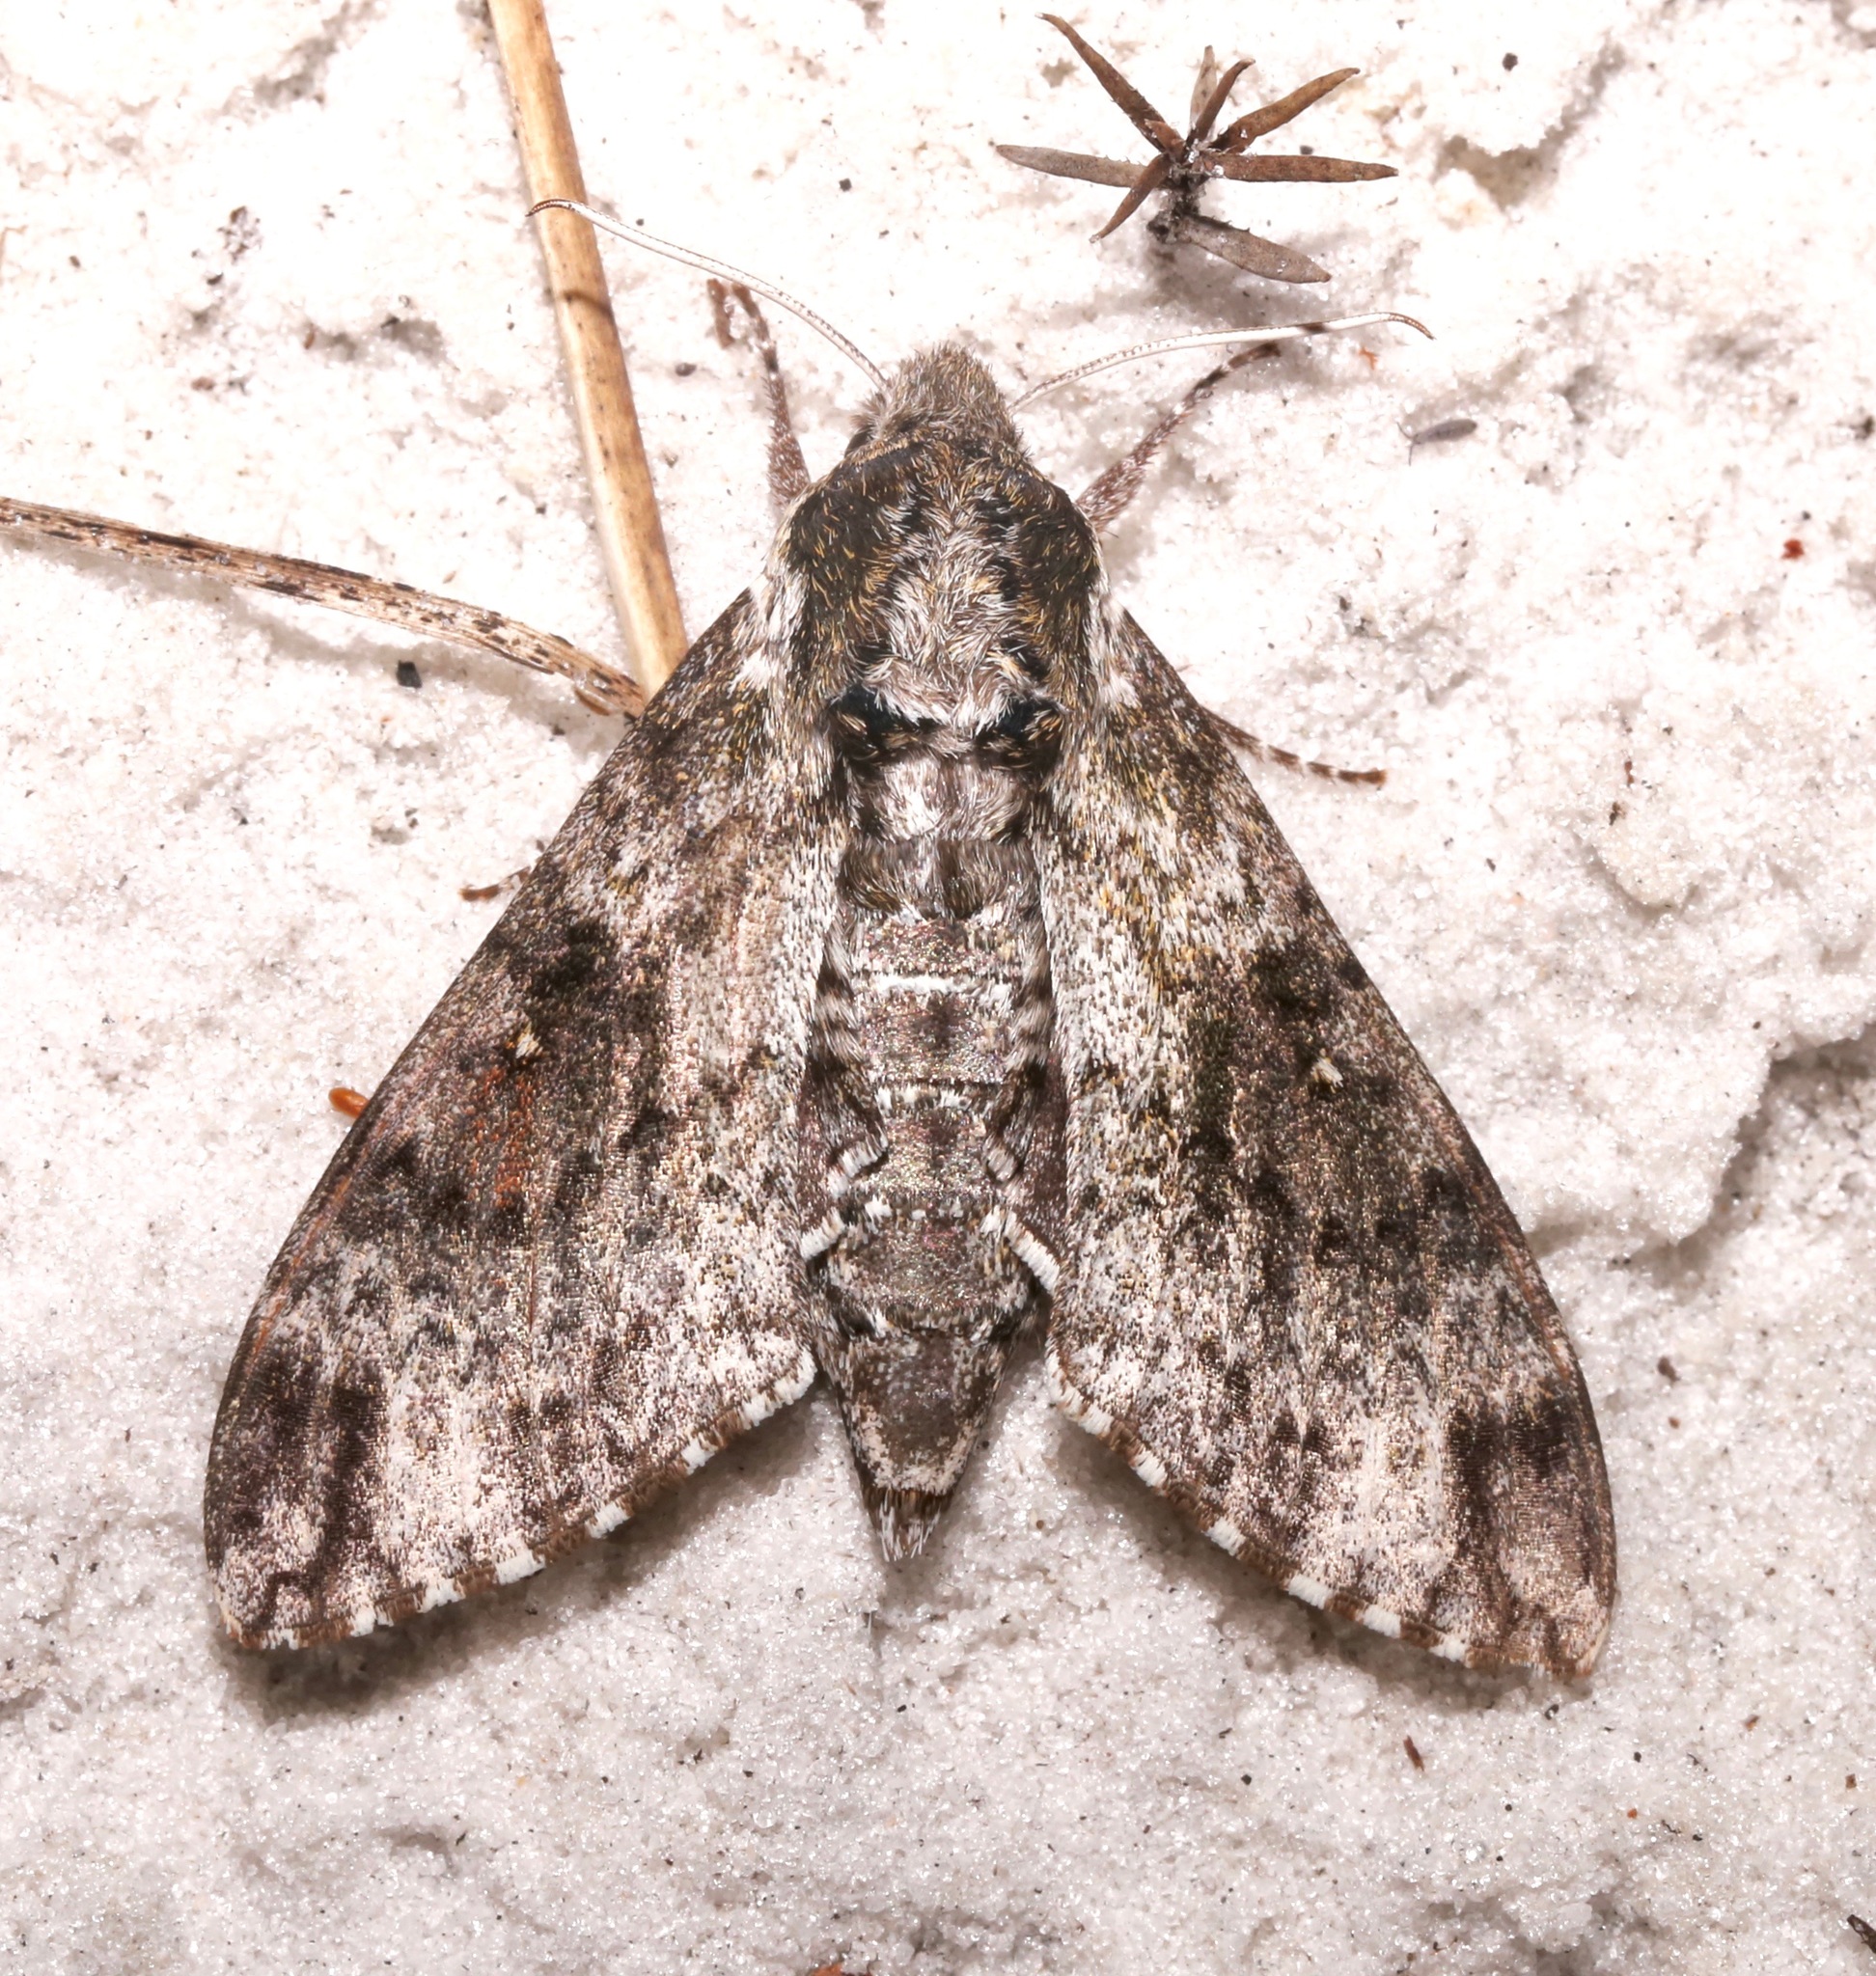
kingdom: Animalia
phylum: Arthropoda
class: Insecta
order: Lepidoptera
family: Sphingidae
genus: Dolba
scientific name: Dolba hyloeus
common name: Pawpaw sphinx
